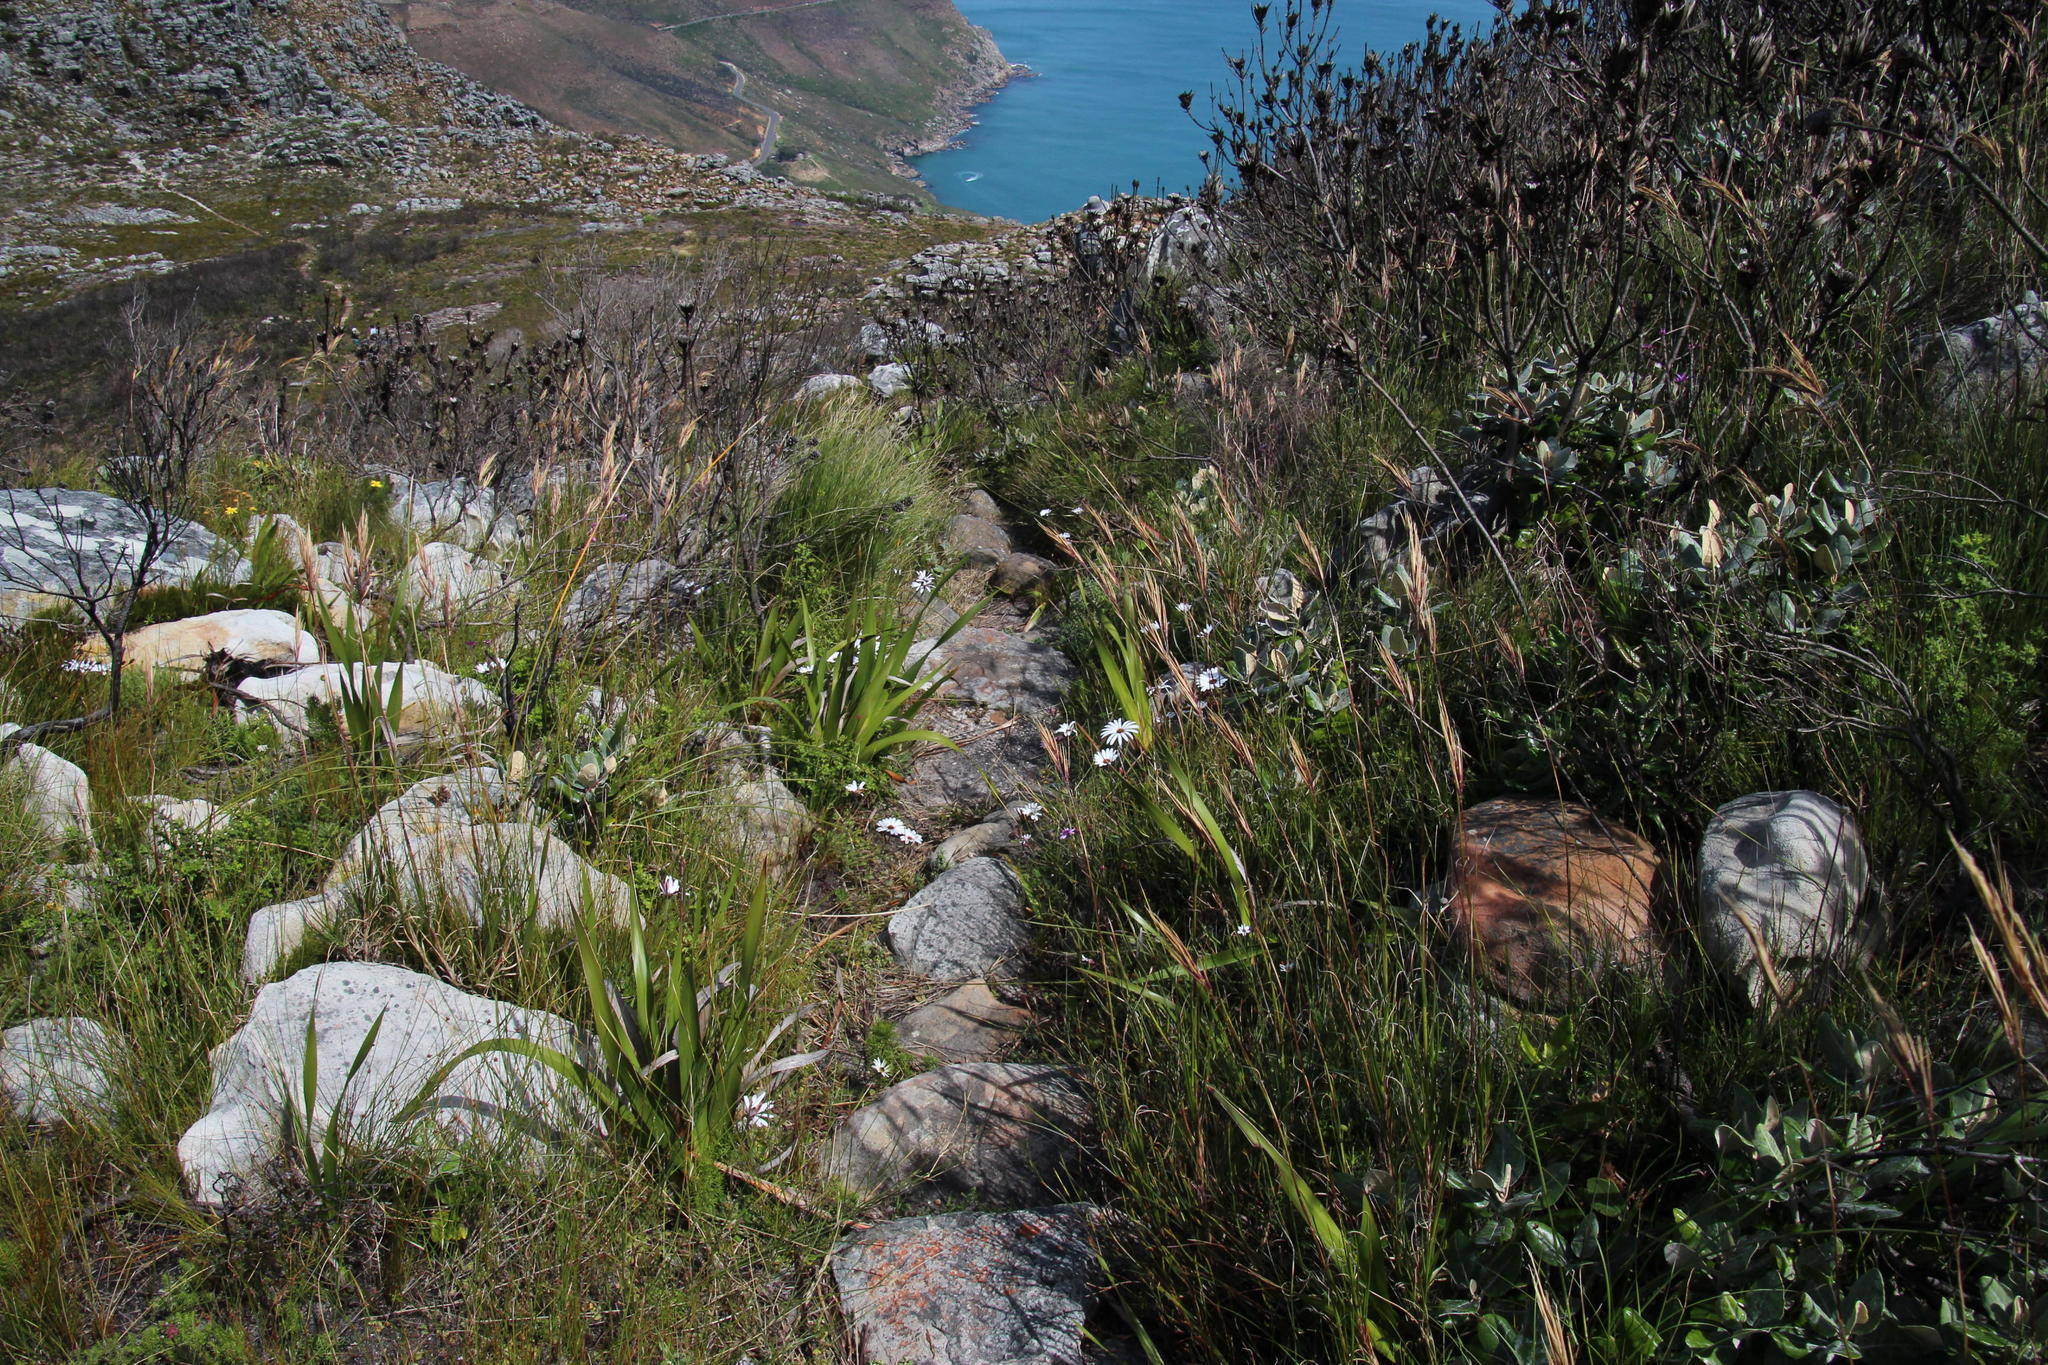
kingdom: Plantae
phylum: Tracheophyta
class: Magnoliopsida
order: Asterales
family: Asteraceae
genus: Dimorphotheca
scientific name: Dimorphotheca nudicaulis
